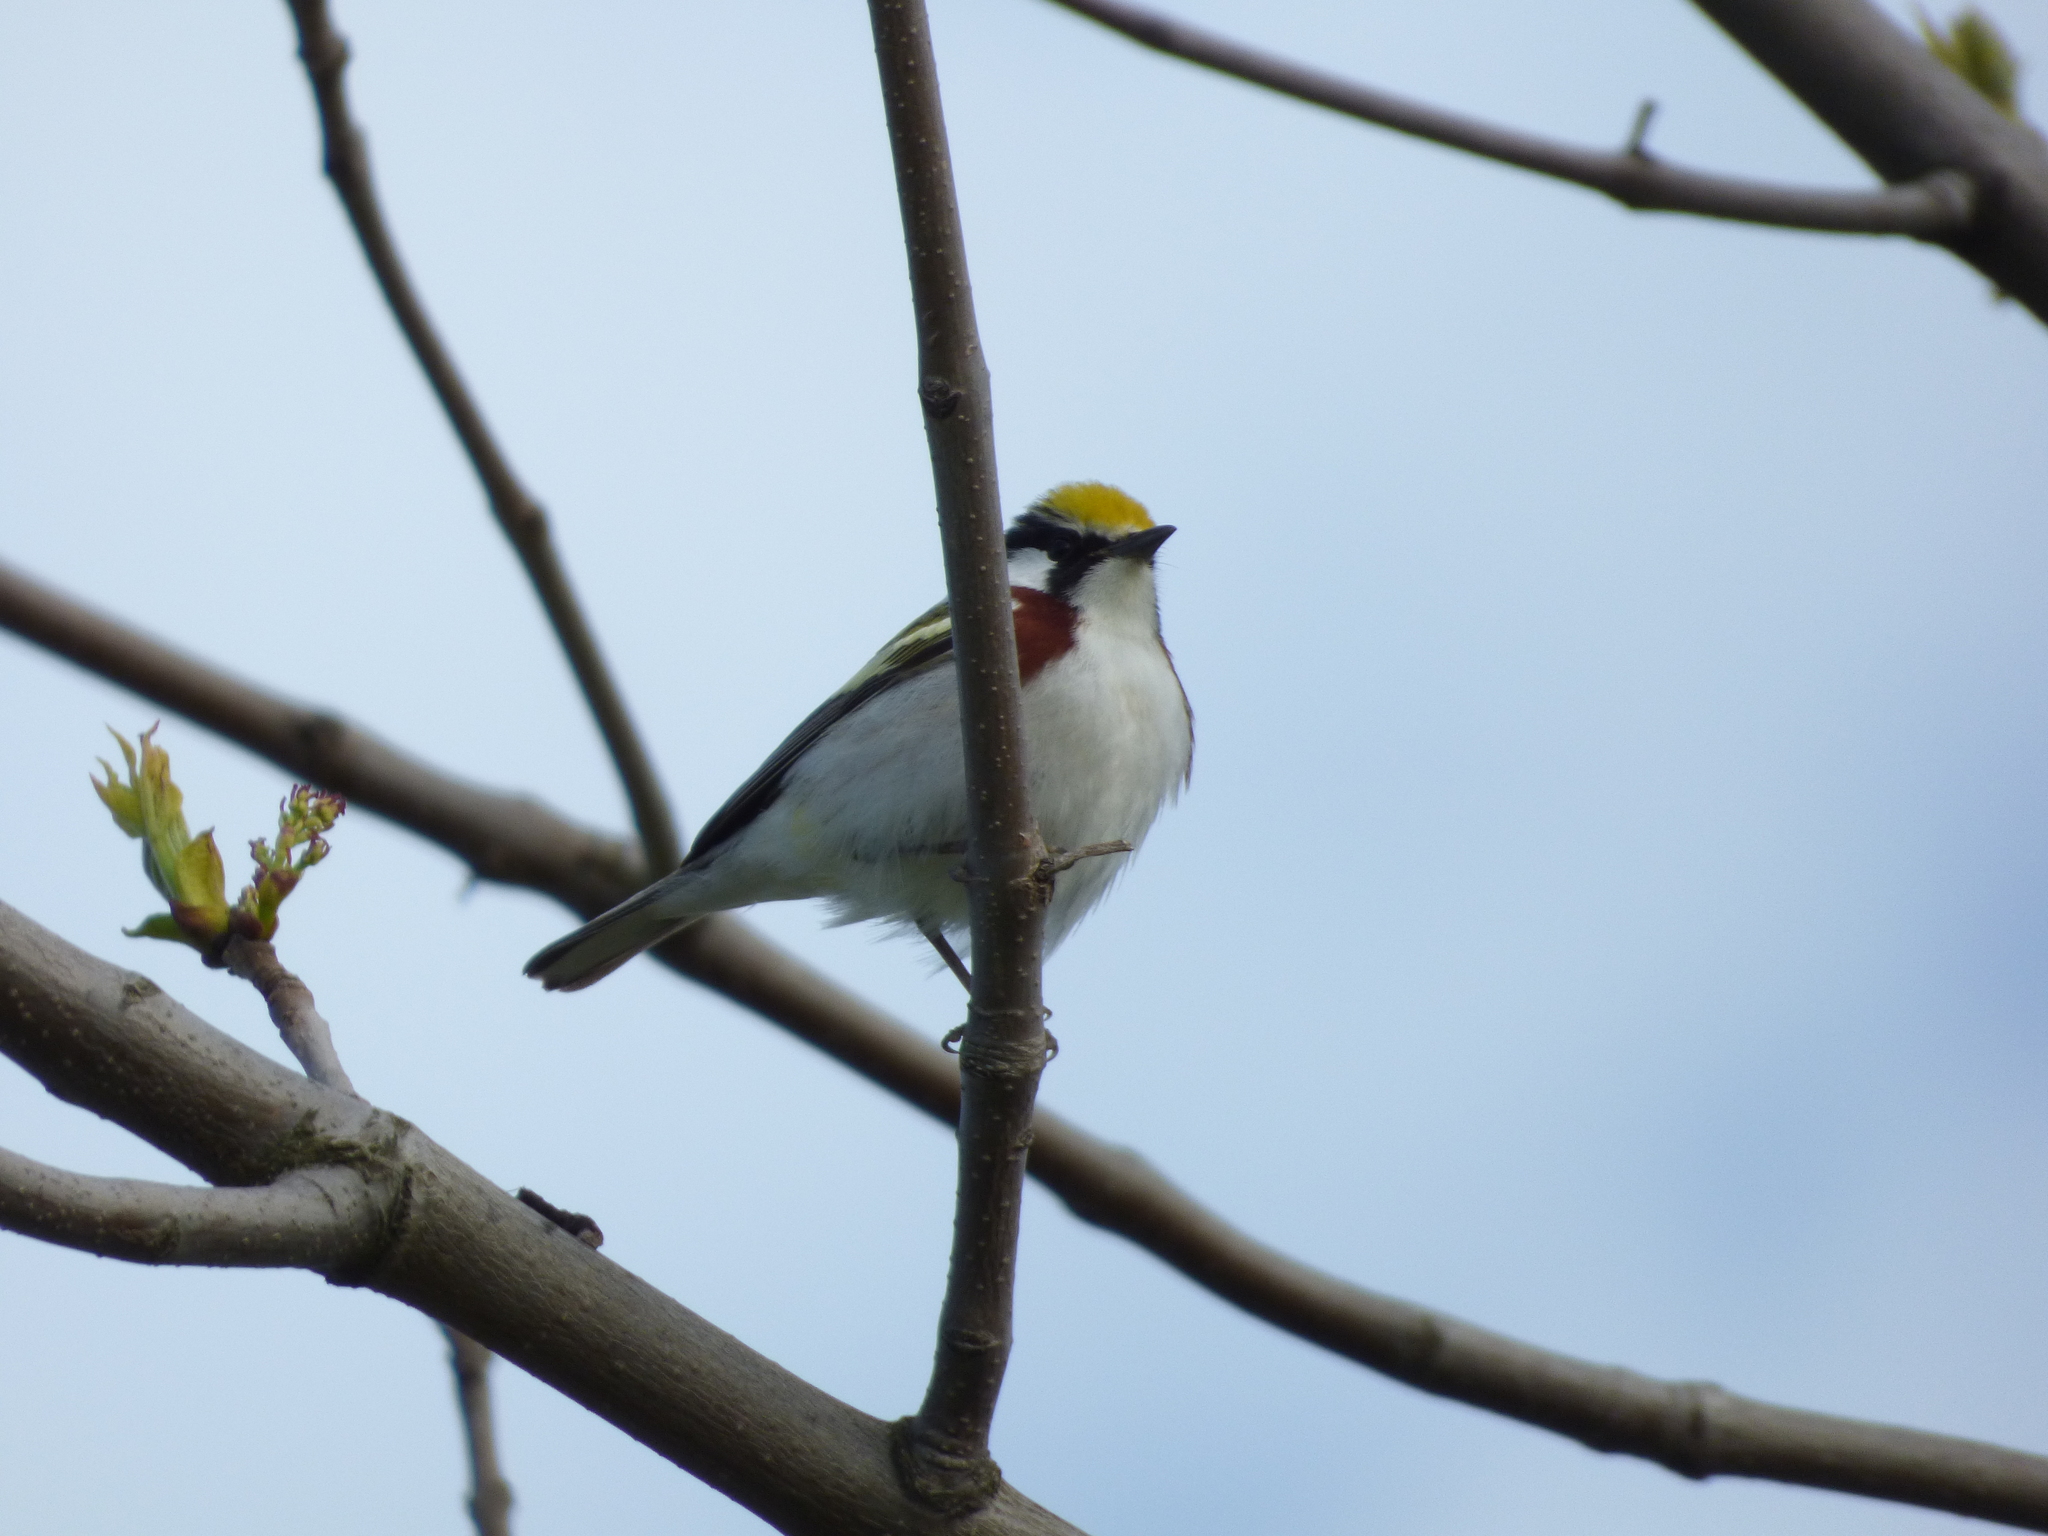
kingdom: Animalia
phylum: Chordata
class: Aves
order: Passeriformes
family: Parulidae
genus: Setophaga
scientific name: Setophaga pensylvanica
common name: Chestnut-sided warbler
